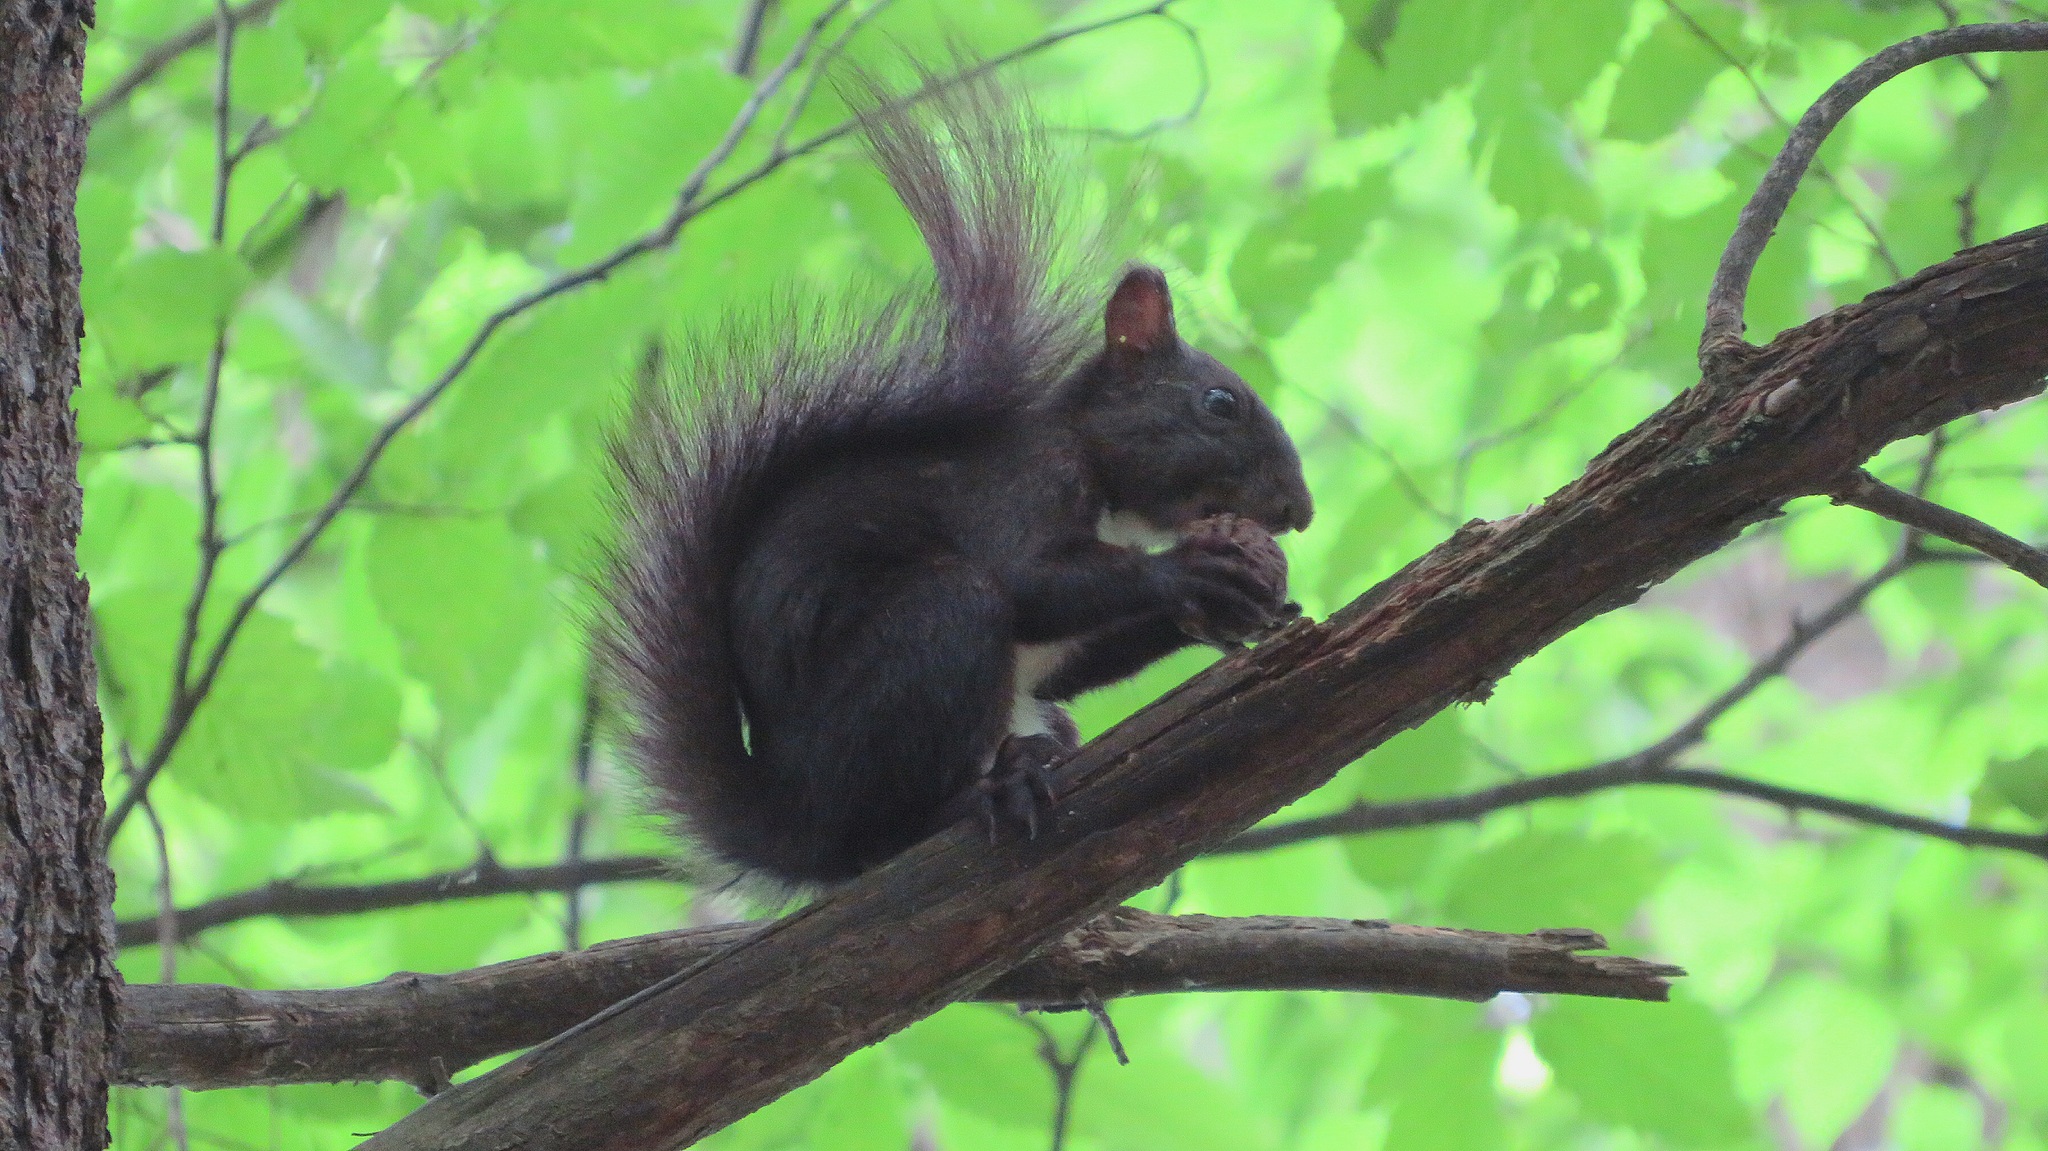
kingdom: Animalia
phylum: Chordata
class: Mammalia
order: Rodentia
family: Sciuridae
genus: Sciurus
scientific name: Sciurus vulgaris
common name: Eurasian red squirrel
